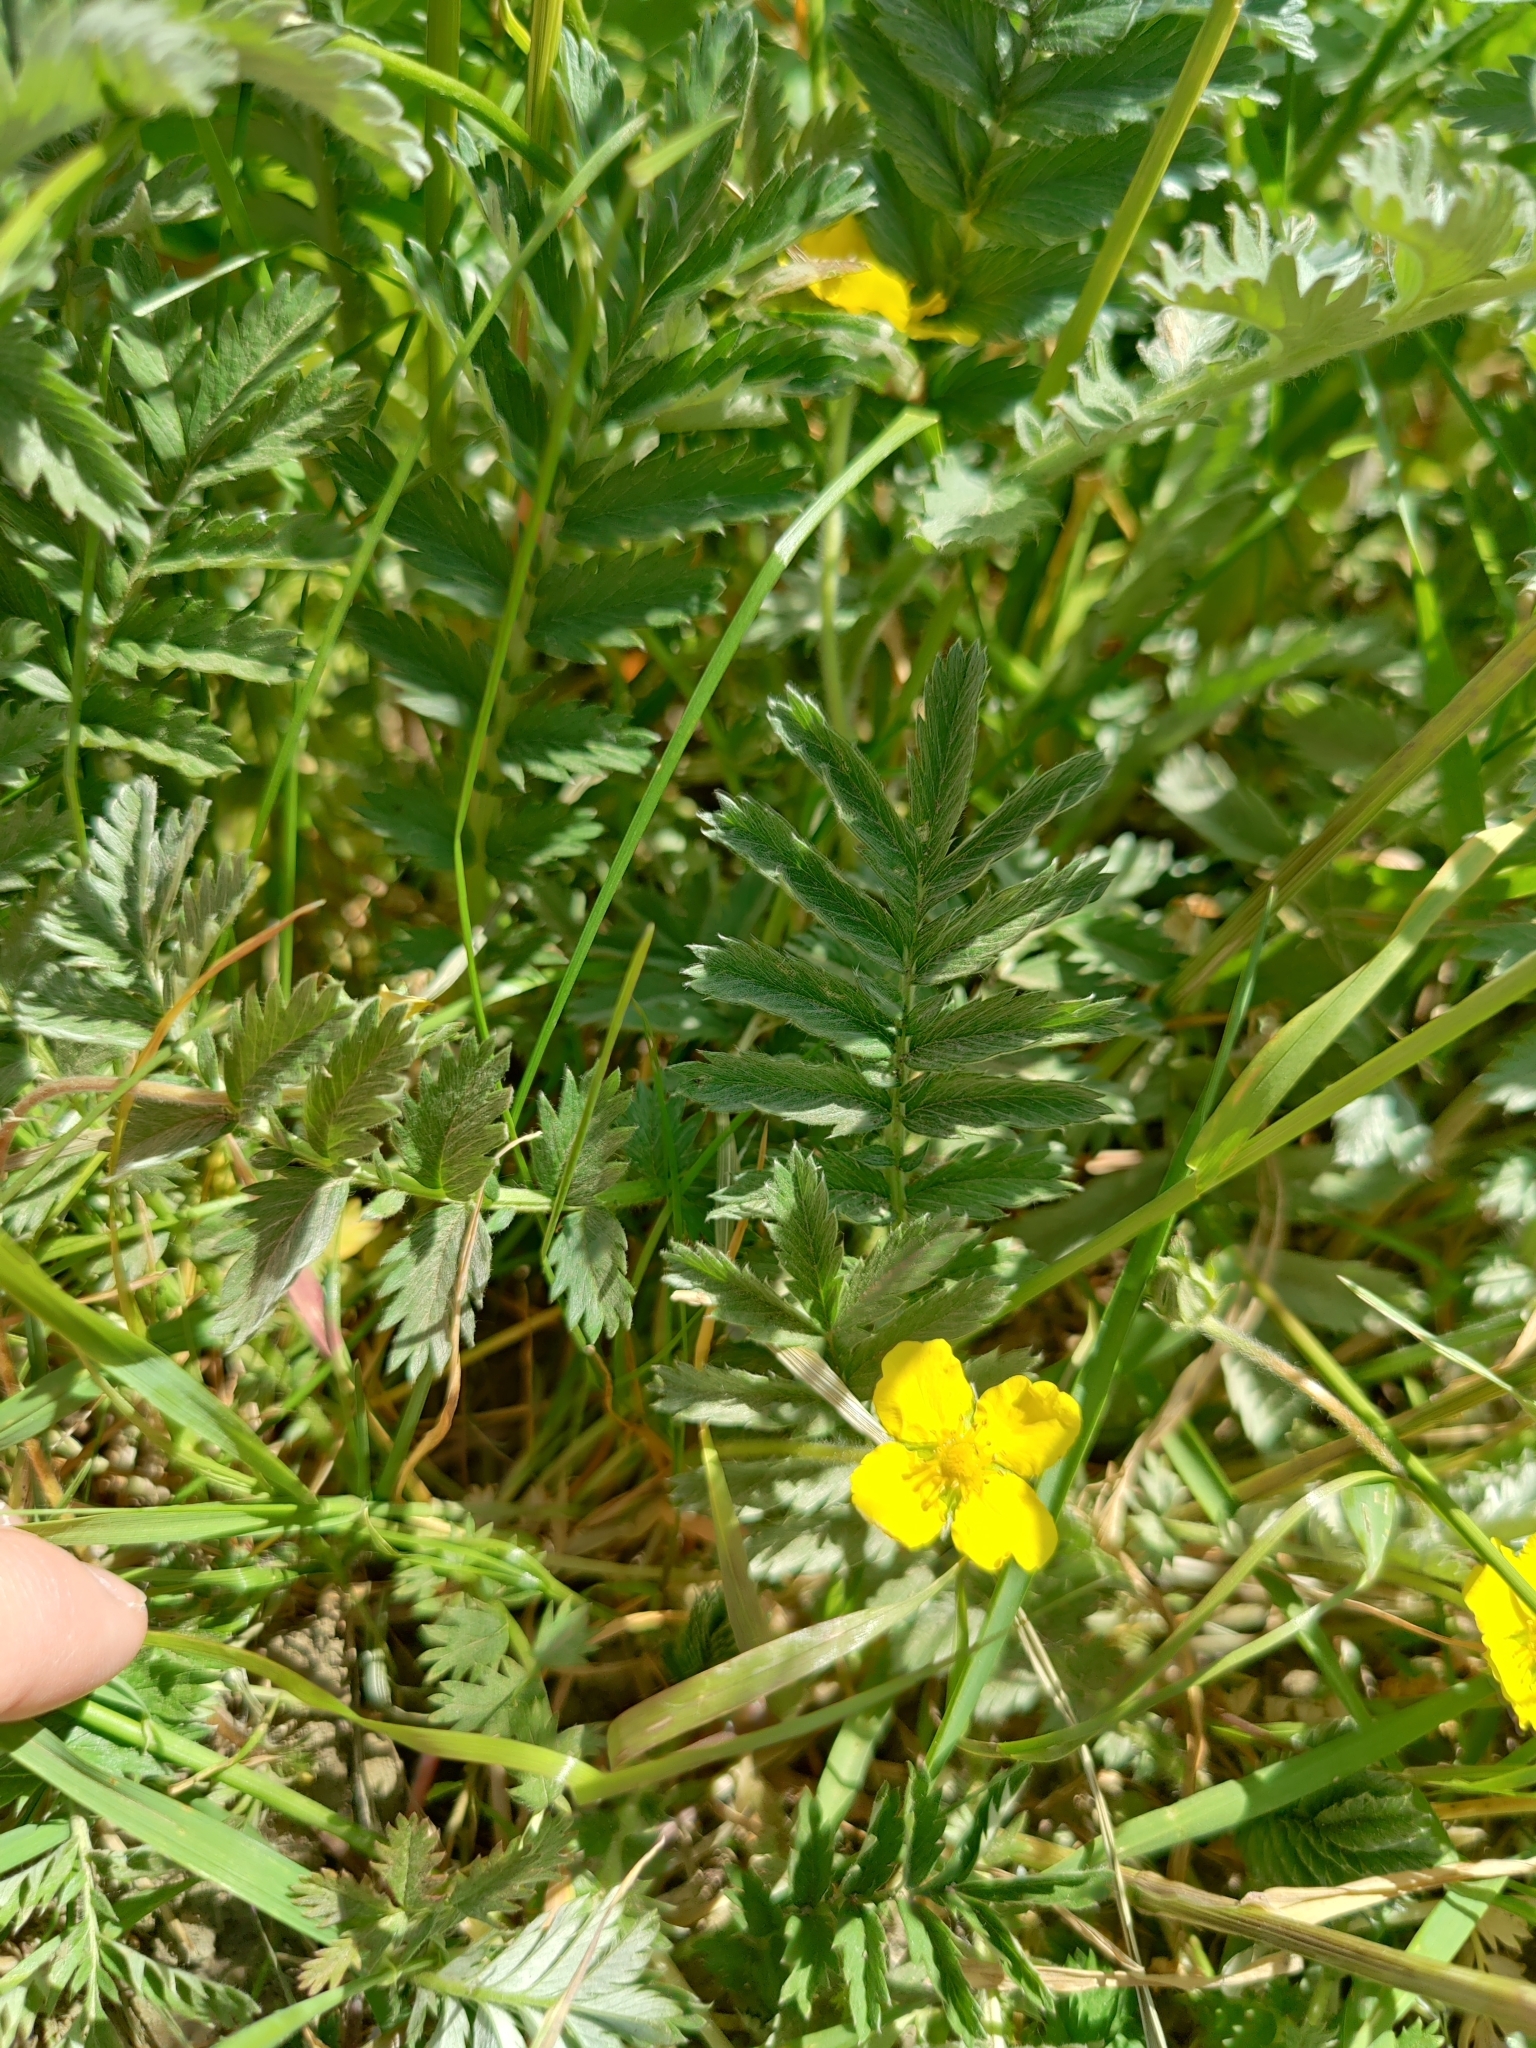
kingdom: Plantae
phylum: Tracheophyta
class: Magnoliopsida
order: Rosales
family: Rosaceae
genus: Argentina
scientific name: Argentina anserina
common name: Common silverweed
